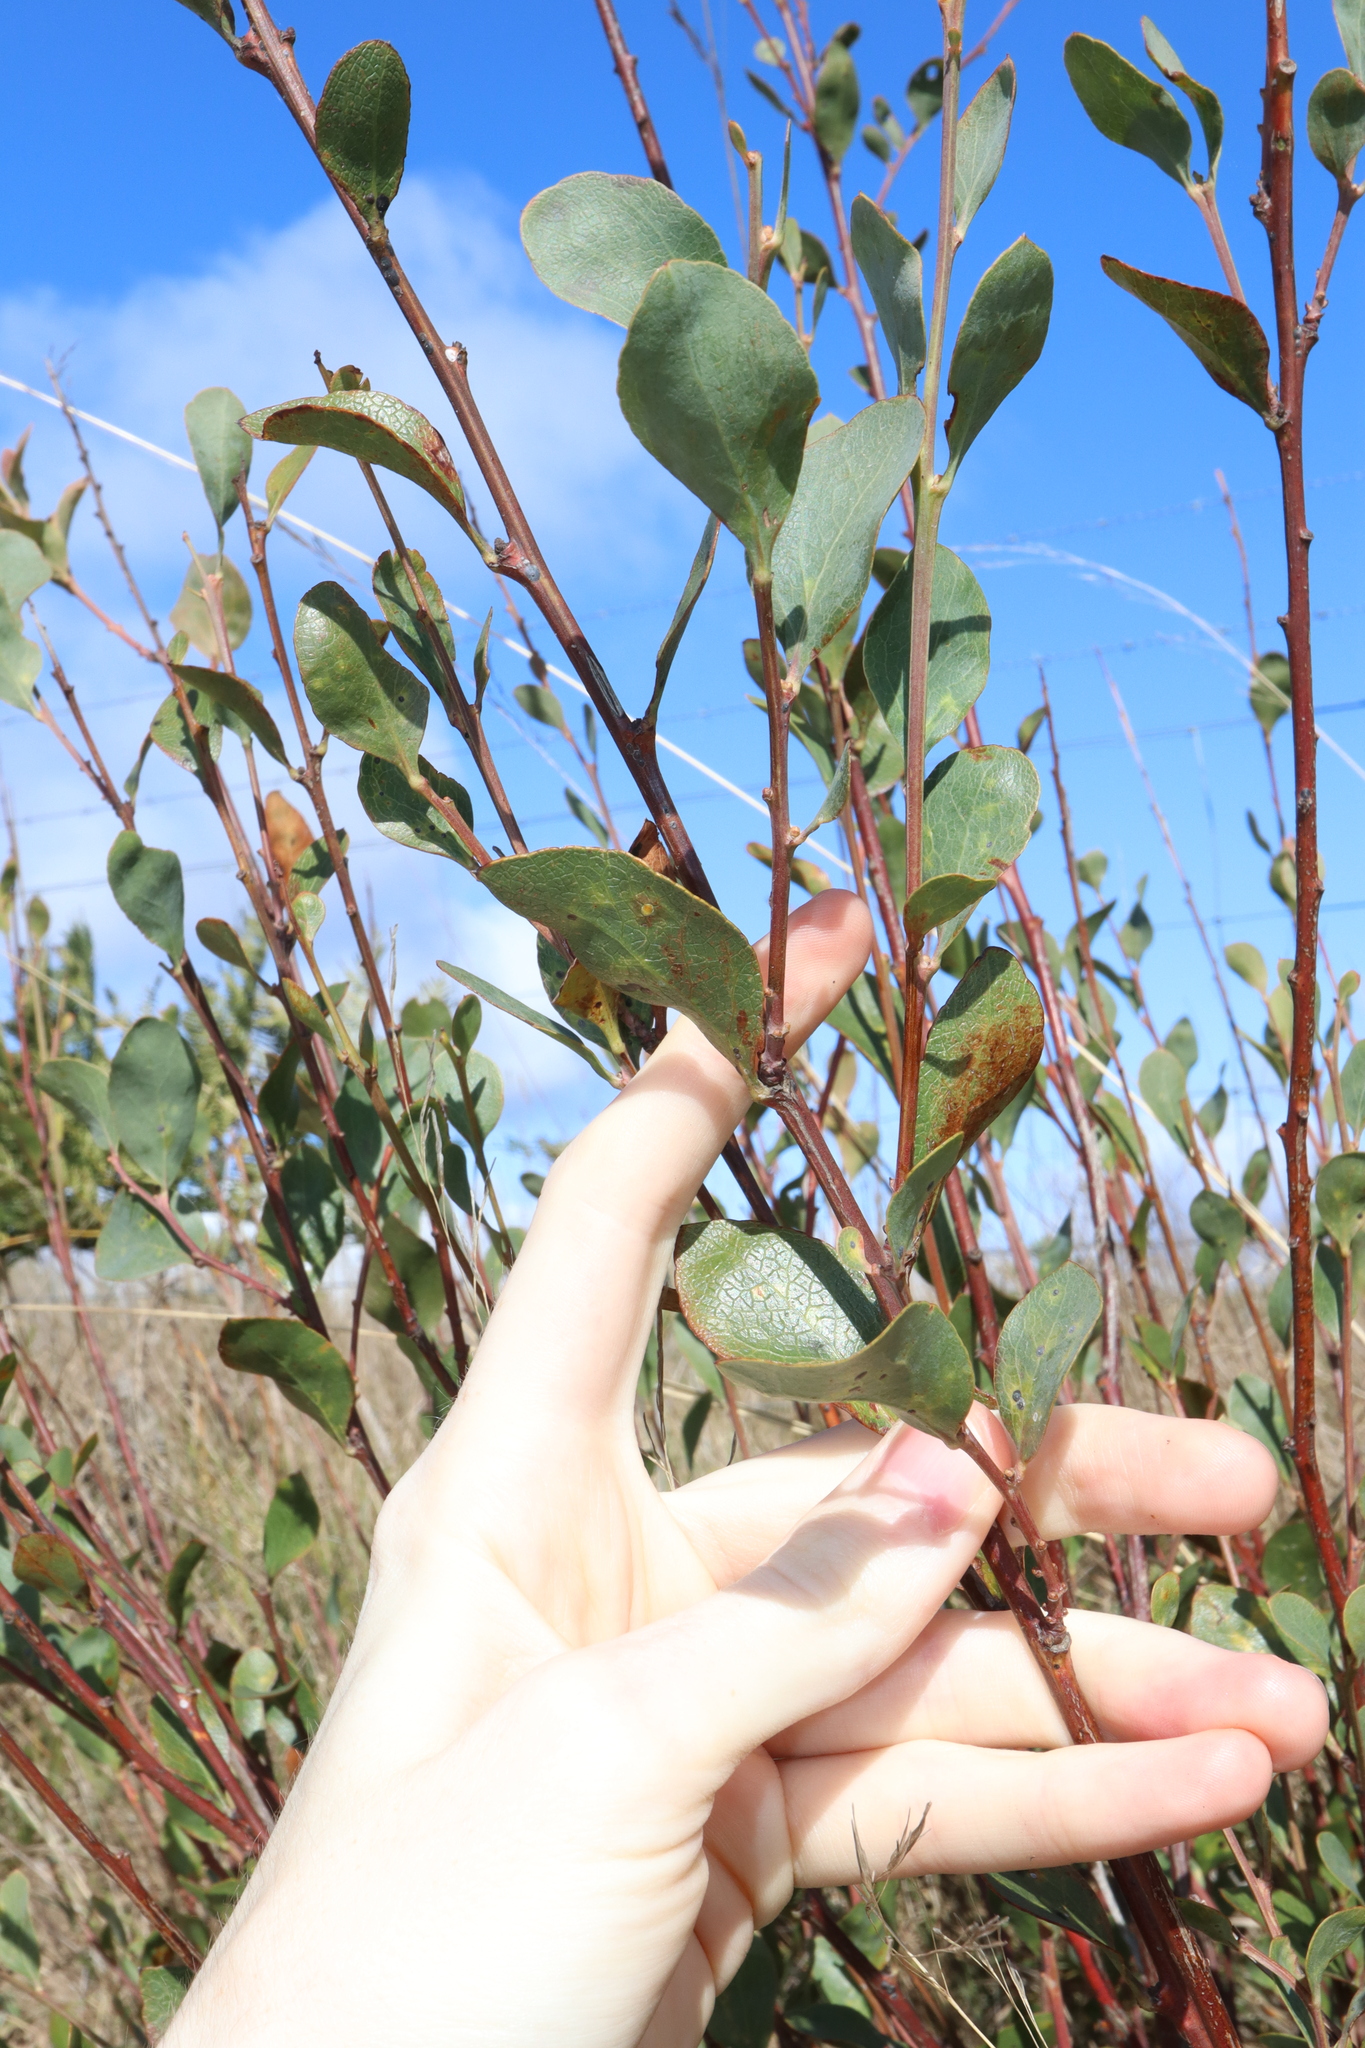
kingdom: Plantae
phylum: Tracheophyta
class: Magnoliopsida
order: Fabales
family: Fabaceae
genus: Daviesia
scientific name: Daviesia latifolia
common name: Hop bitter-pea
